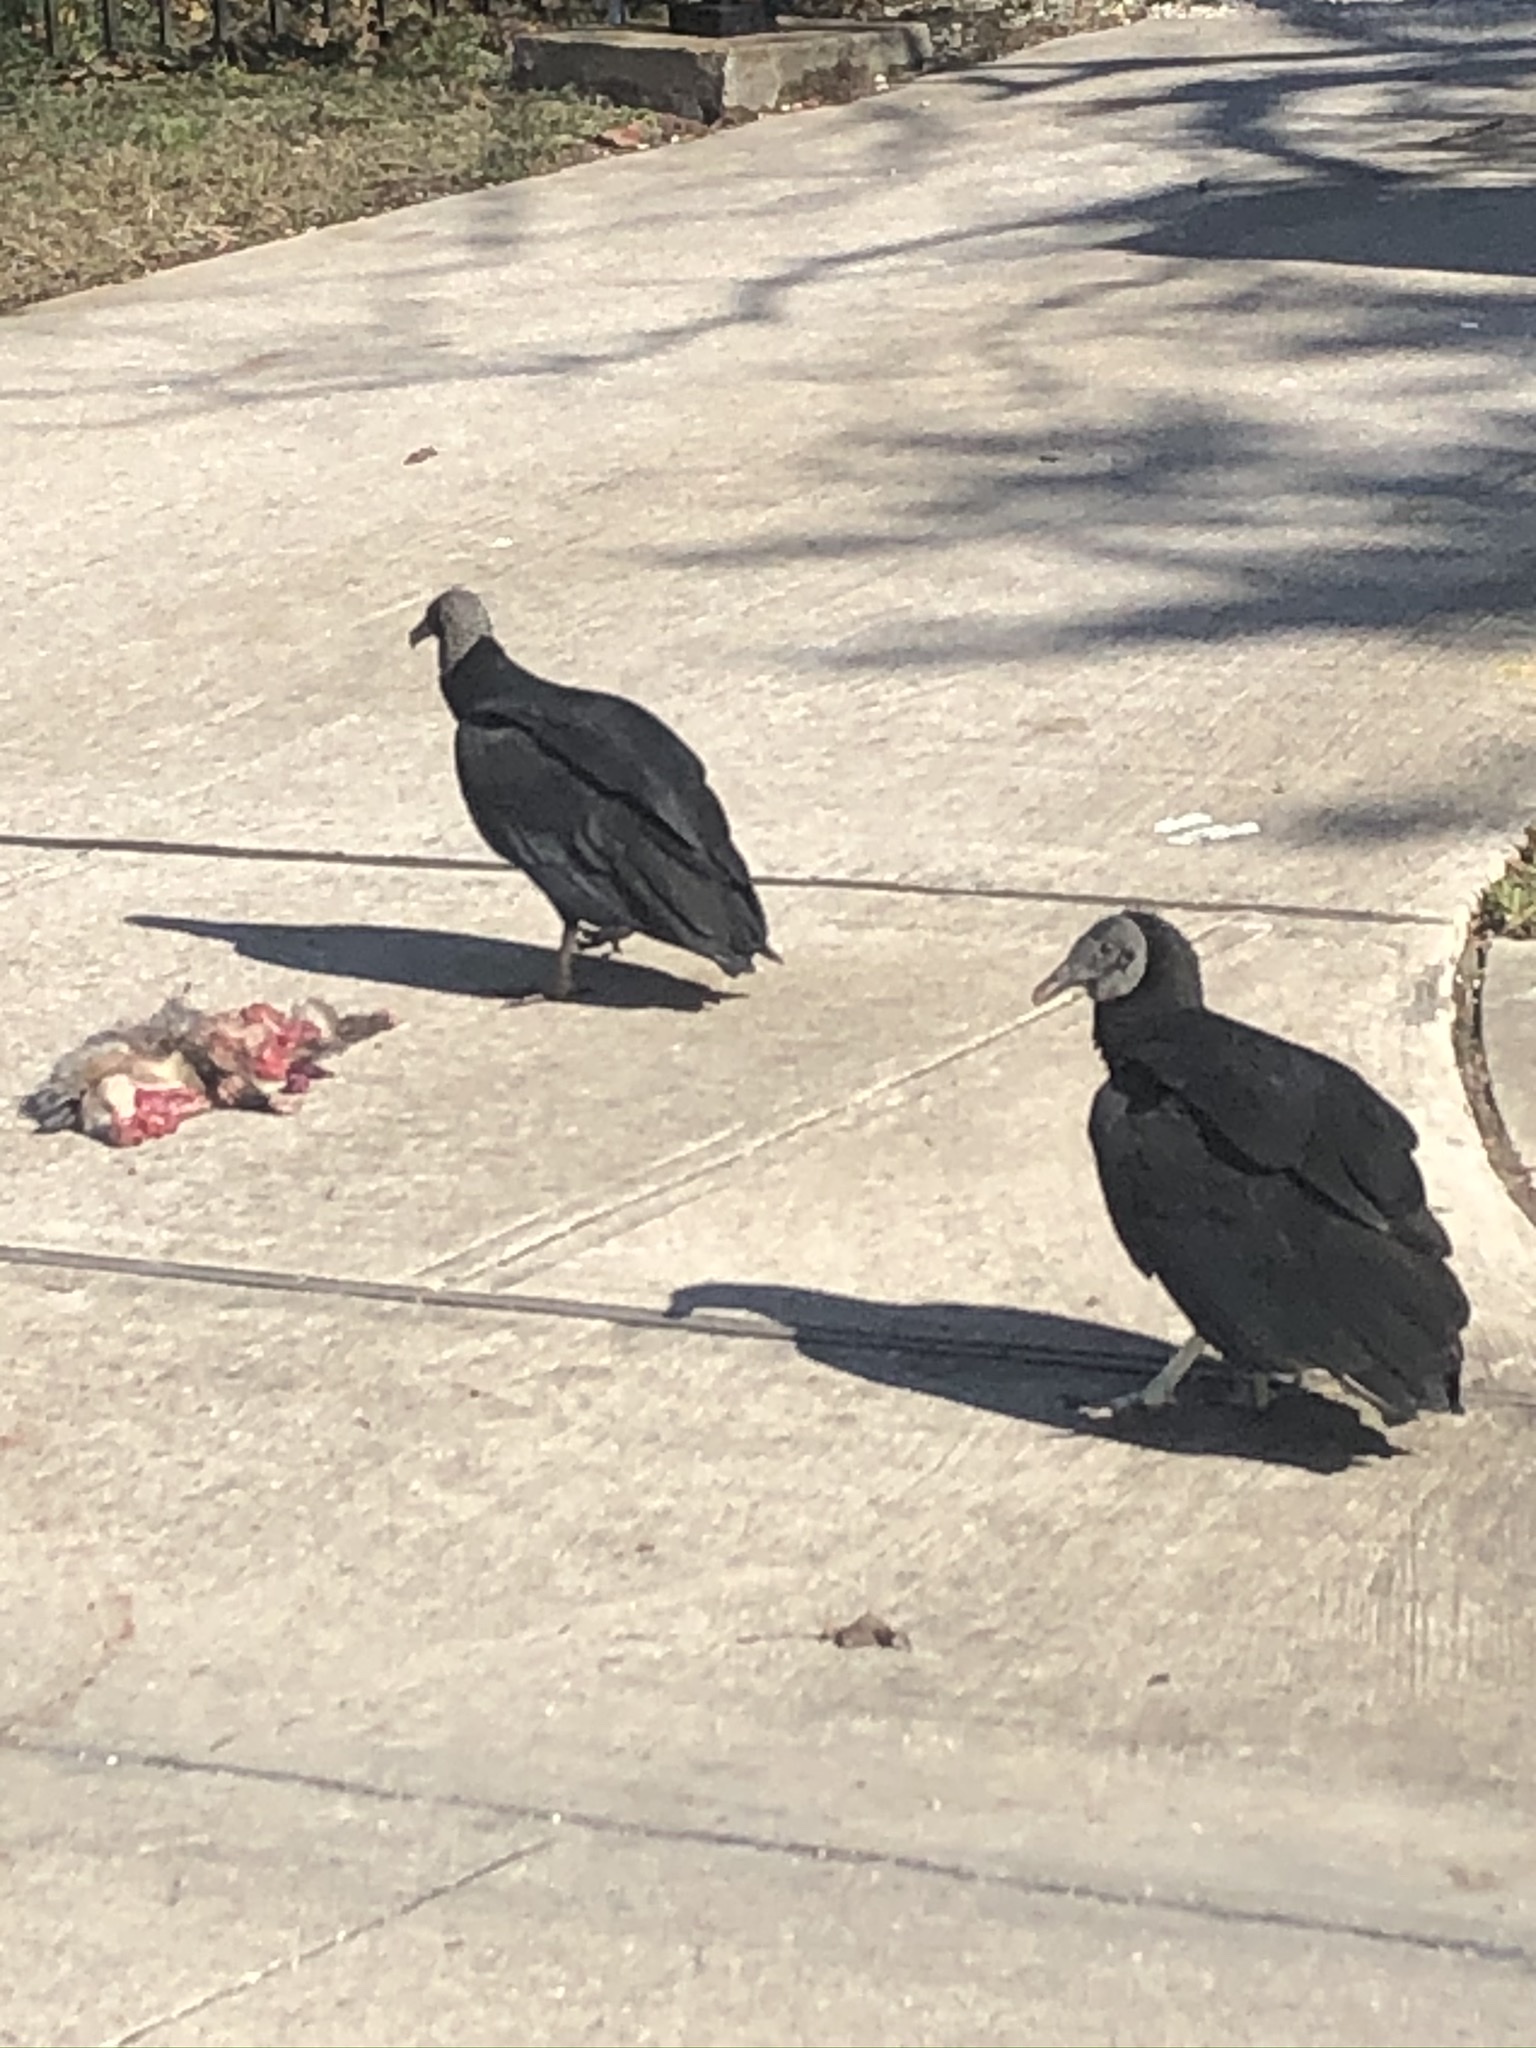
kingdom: Animalia
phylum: Chordata
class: Aves
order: Accipitriformes
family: Cathartidae
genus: Coragyps
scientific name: Coragyps atratus
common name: Black vulture
